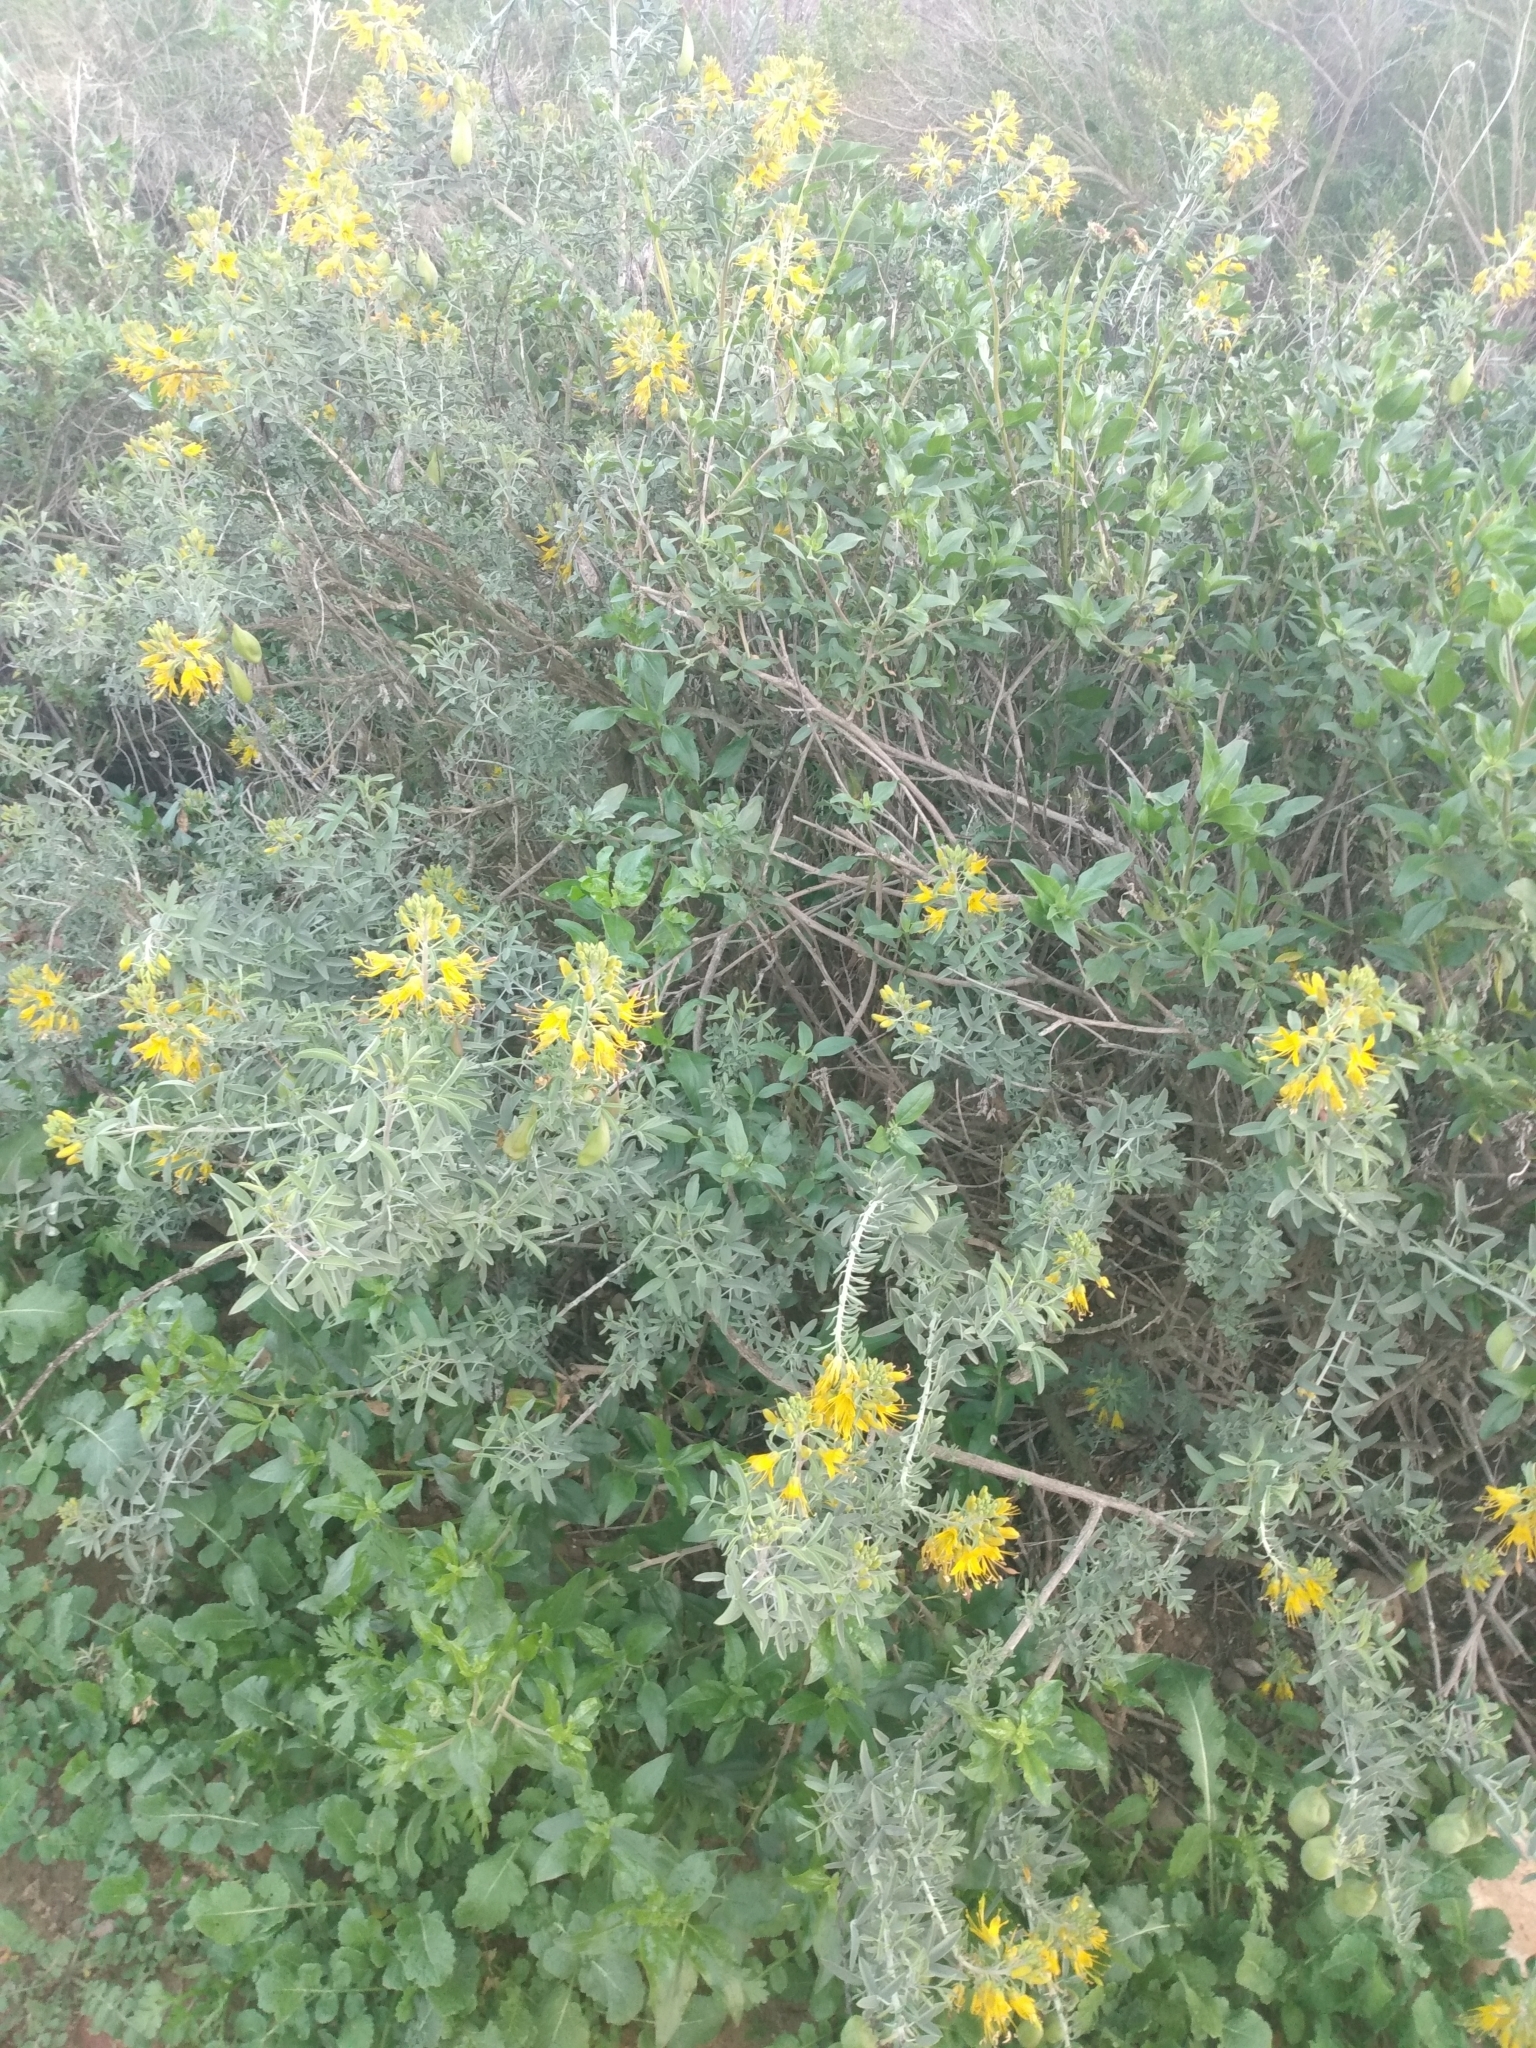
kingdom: Plantae
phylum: Tracheophyta
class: Magnoliopsida
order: Brassicales
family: Cleomaceae
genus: Cleomella
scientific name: Cleomella arborea
